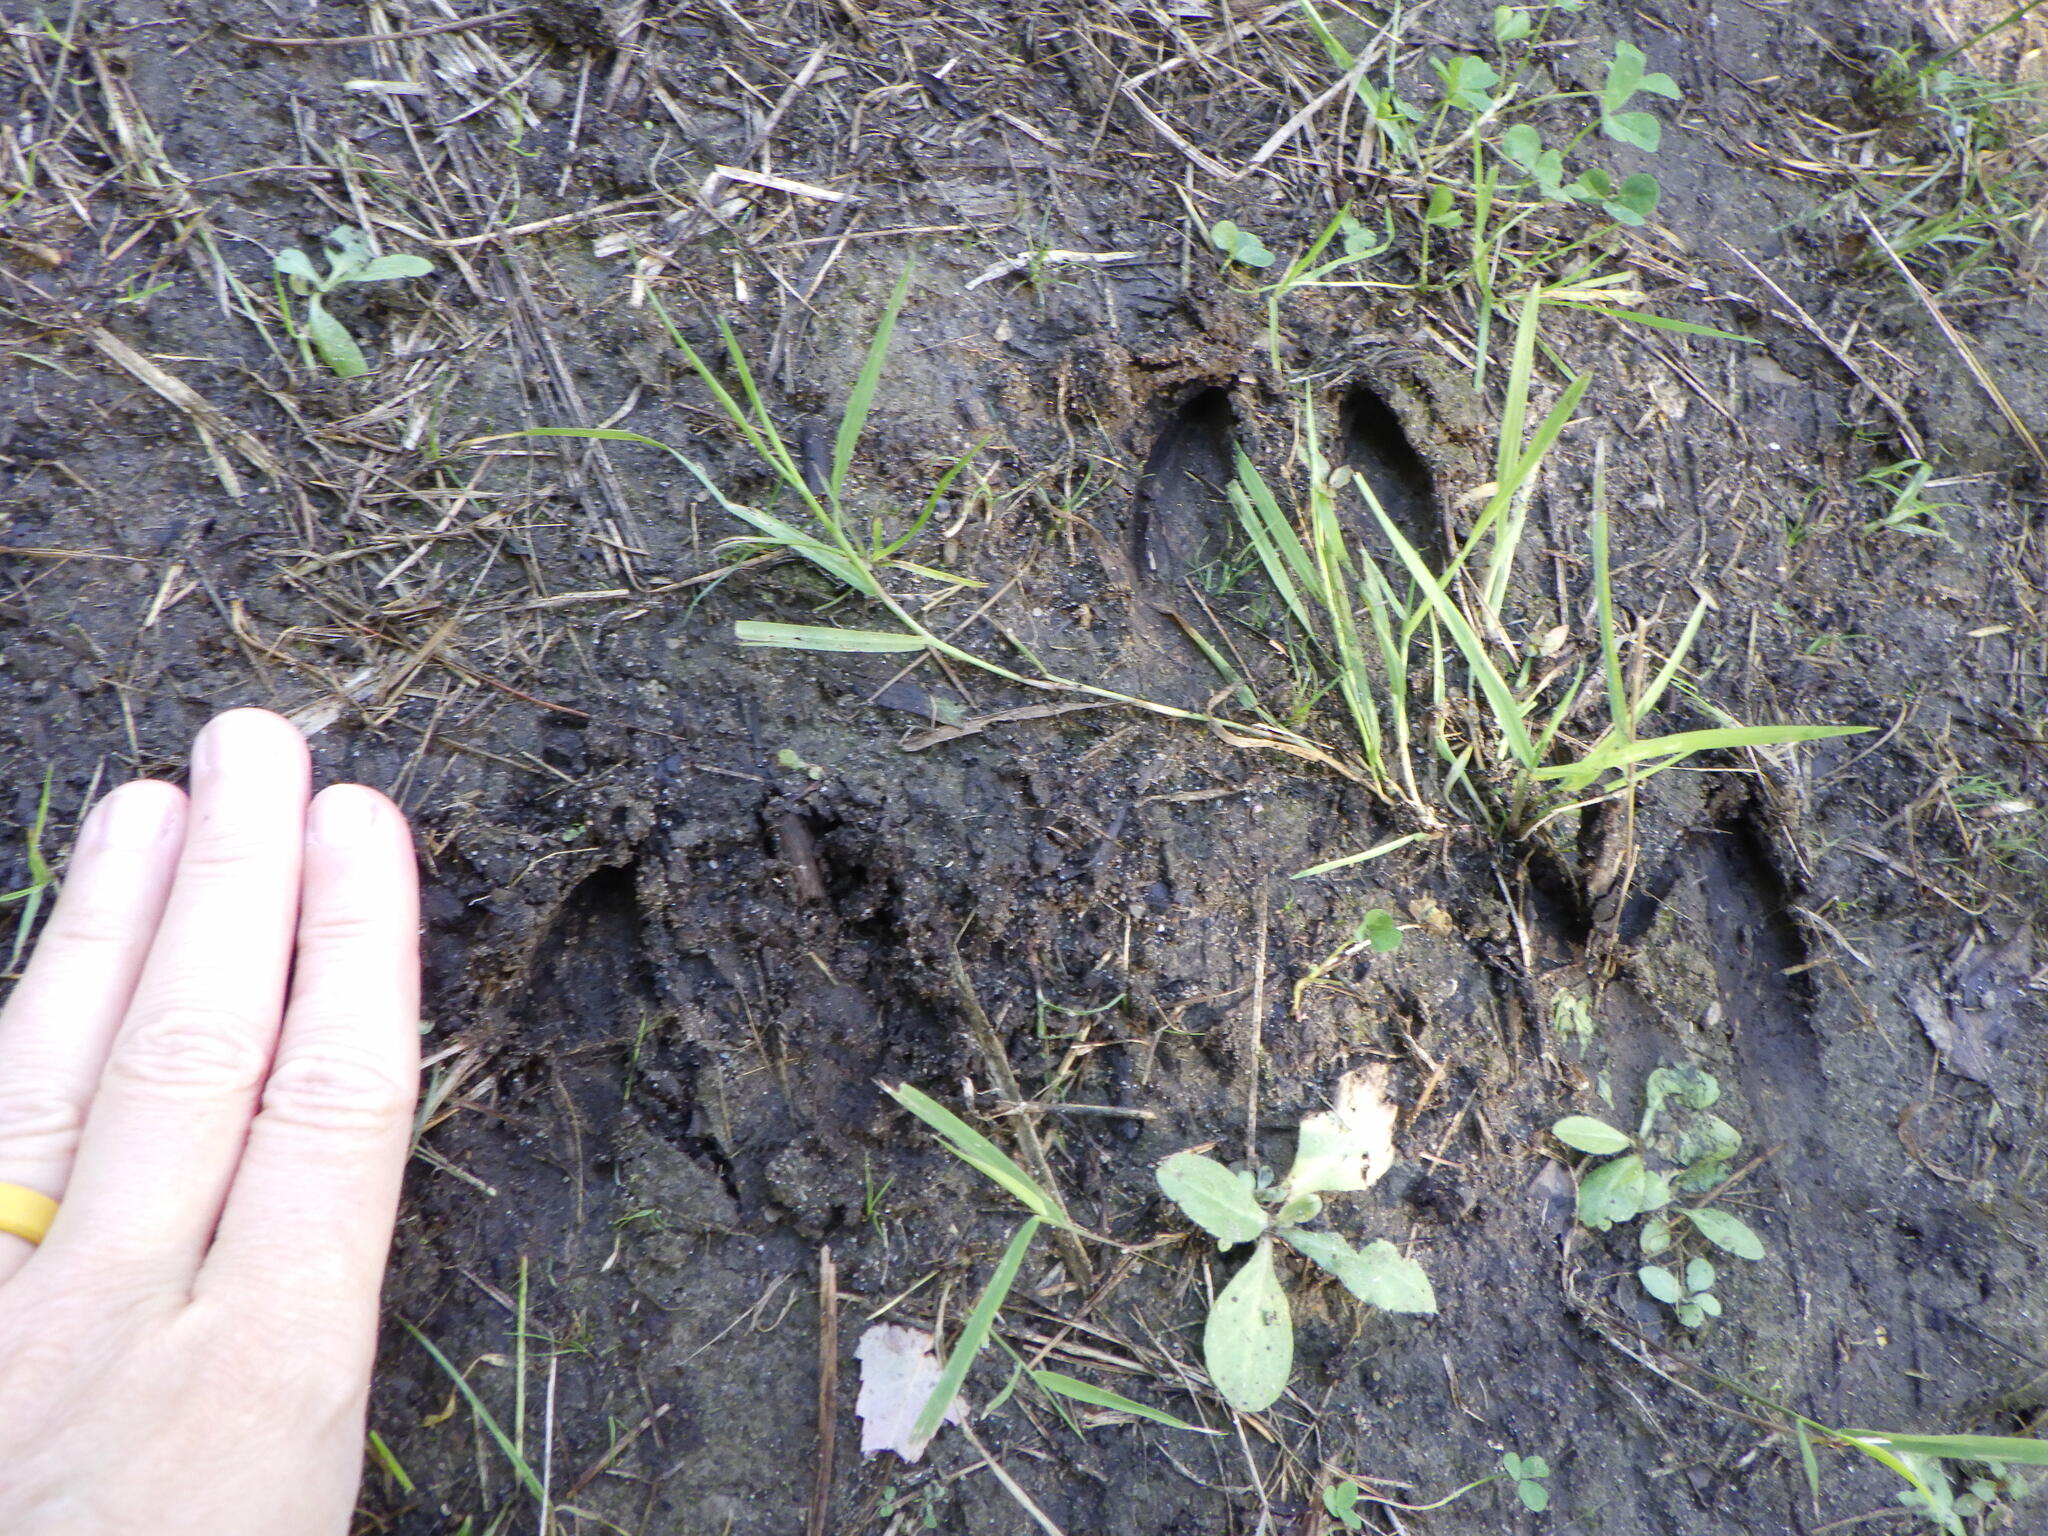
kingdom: Animalia
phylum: Chordata
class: Mammalia
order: Artiodactyla
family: Cervidae
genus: Odocoileus
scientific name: Odocoileus virginianus
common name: White-tailed deer
